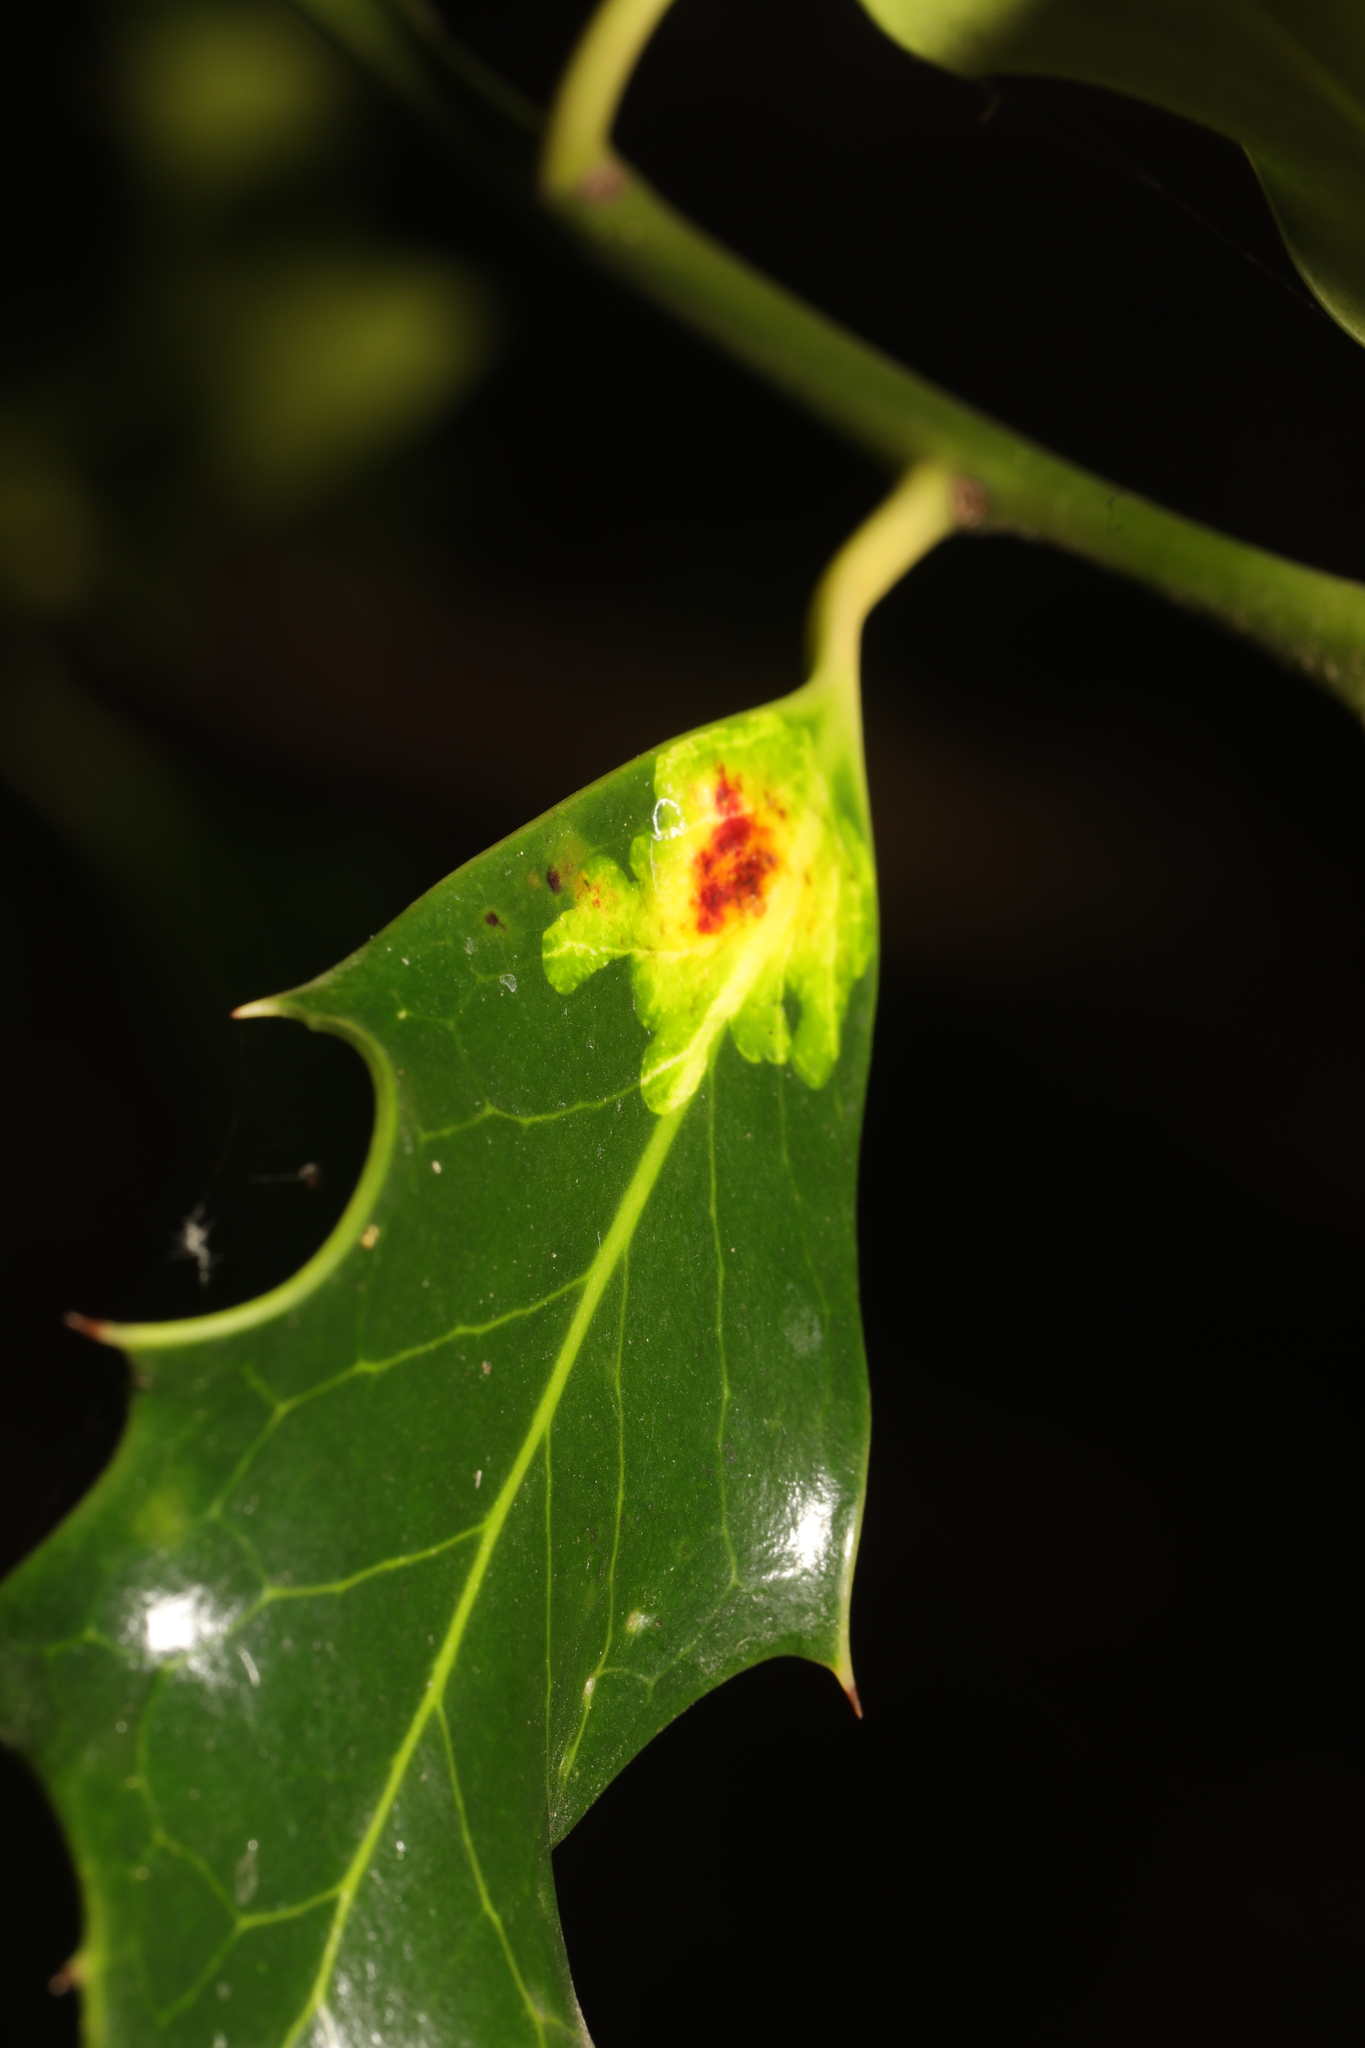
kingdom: Animalia
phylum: Arthropoda
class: Insecta
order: Diptera
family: Agromyzidae
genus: Phytomyza
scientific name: Phytomyza ilicis
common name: Holly leafminer
